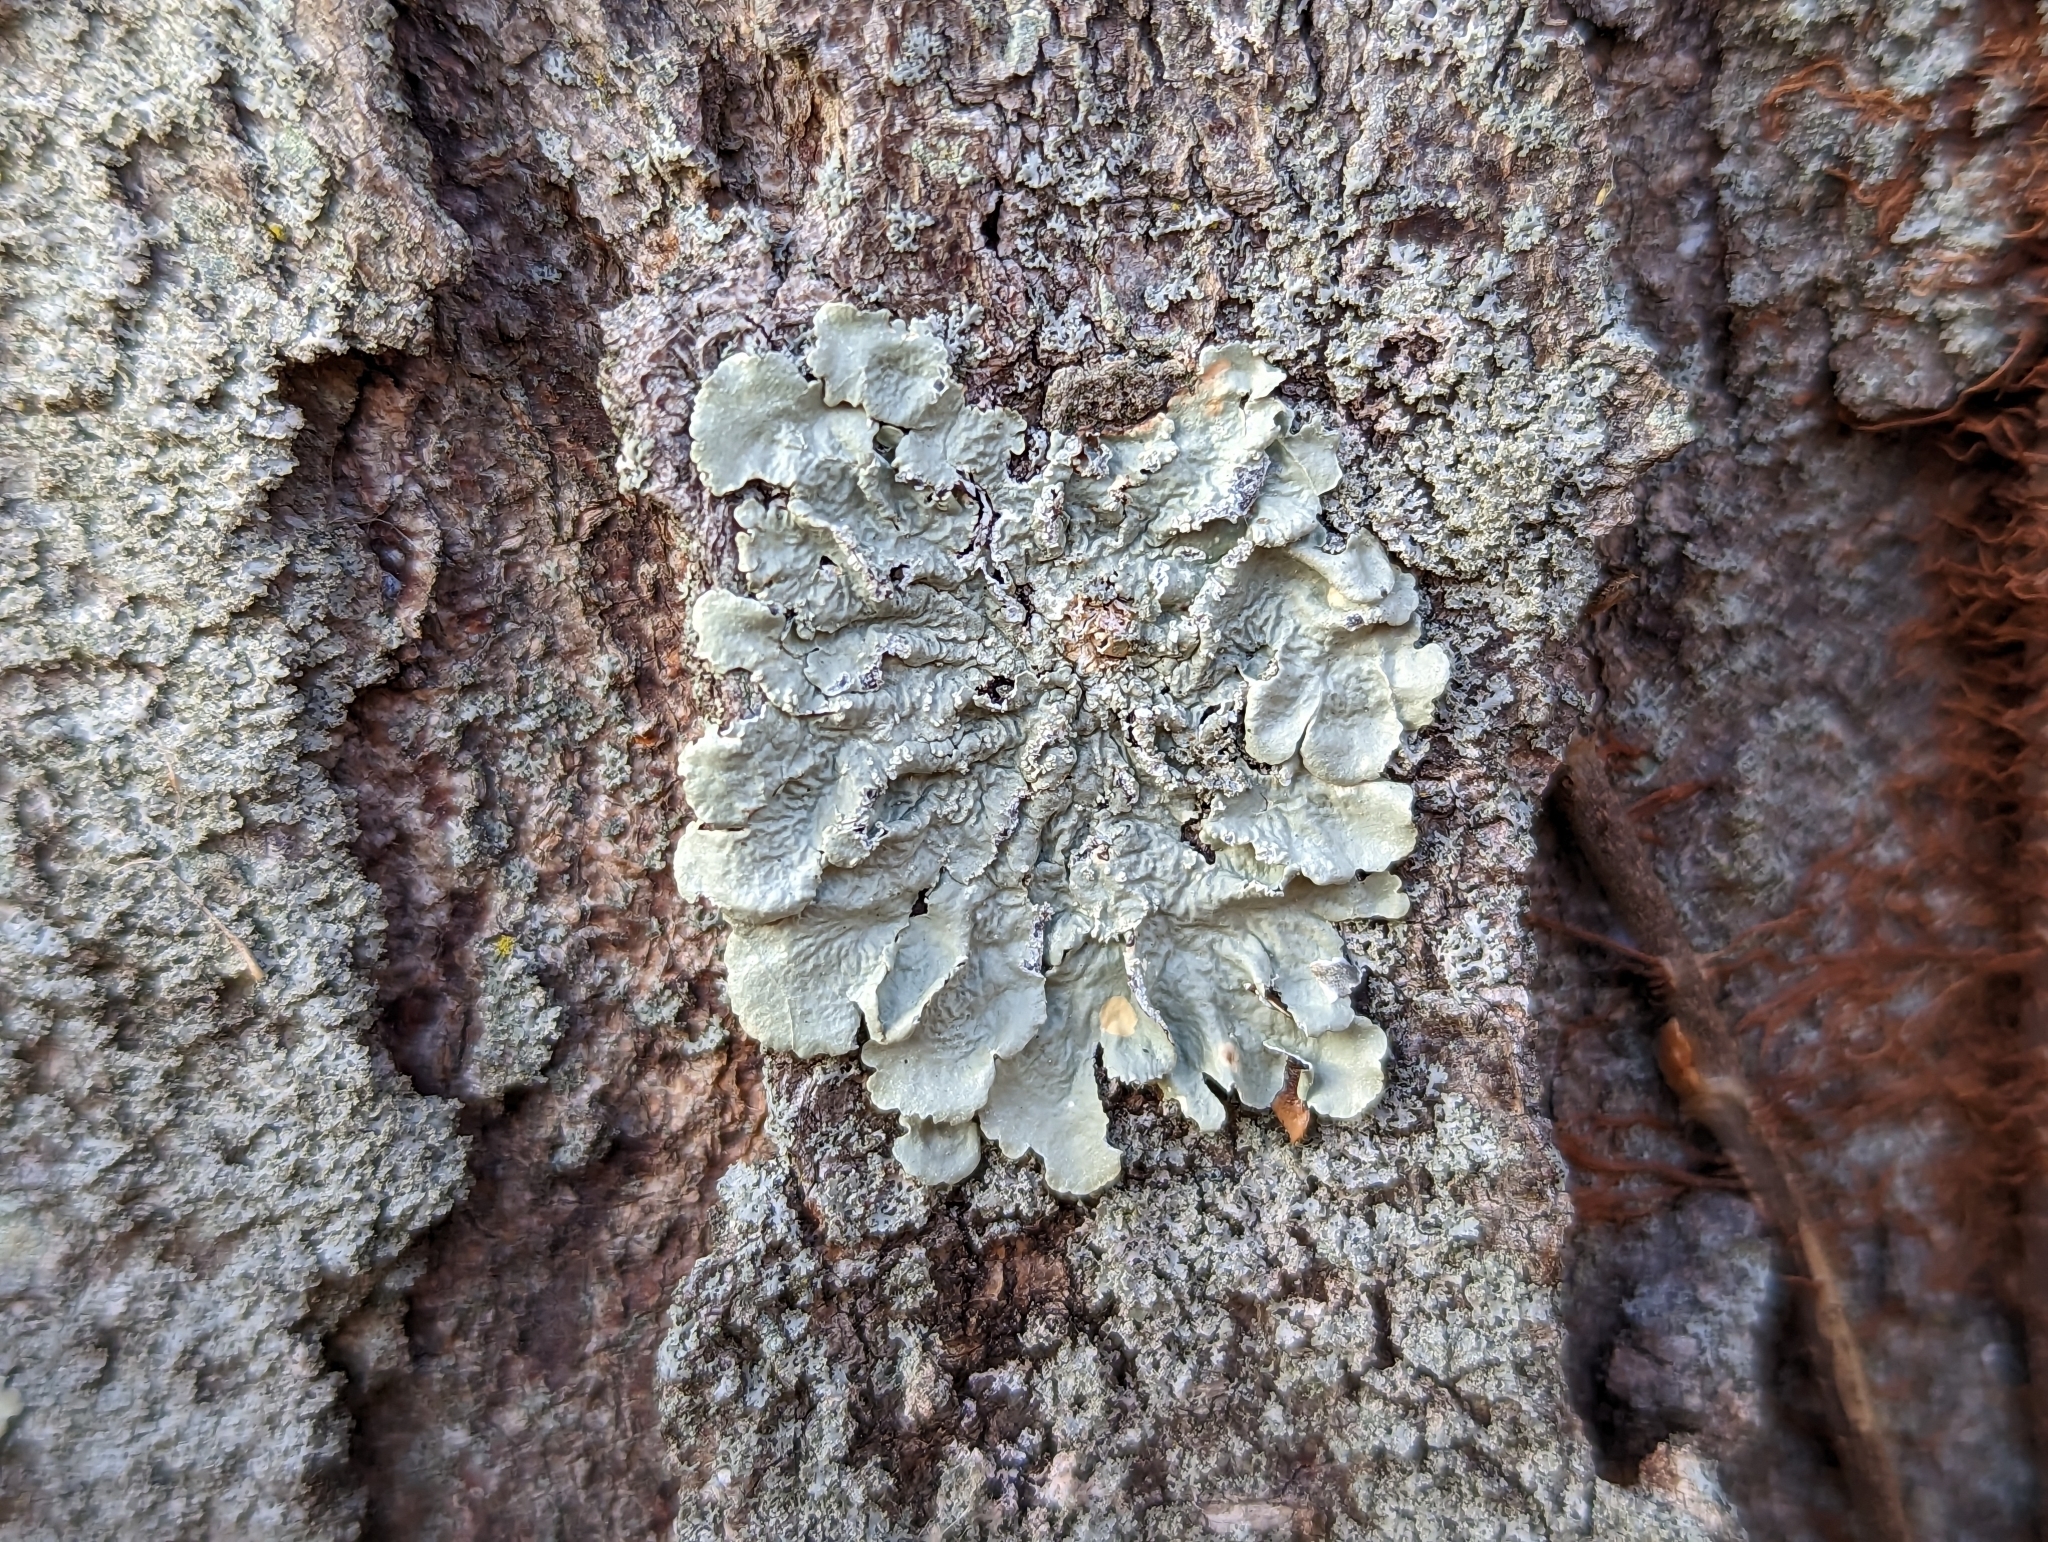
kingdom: Fungi
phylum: Ascomycota
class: Lecanoromycetes
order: Lecanorales
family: Parmeliaceae
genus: Flavoparmelia
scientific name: Flavoparmelia caperata
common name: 40-mile per hour lichen
